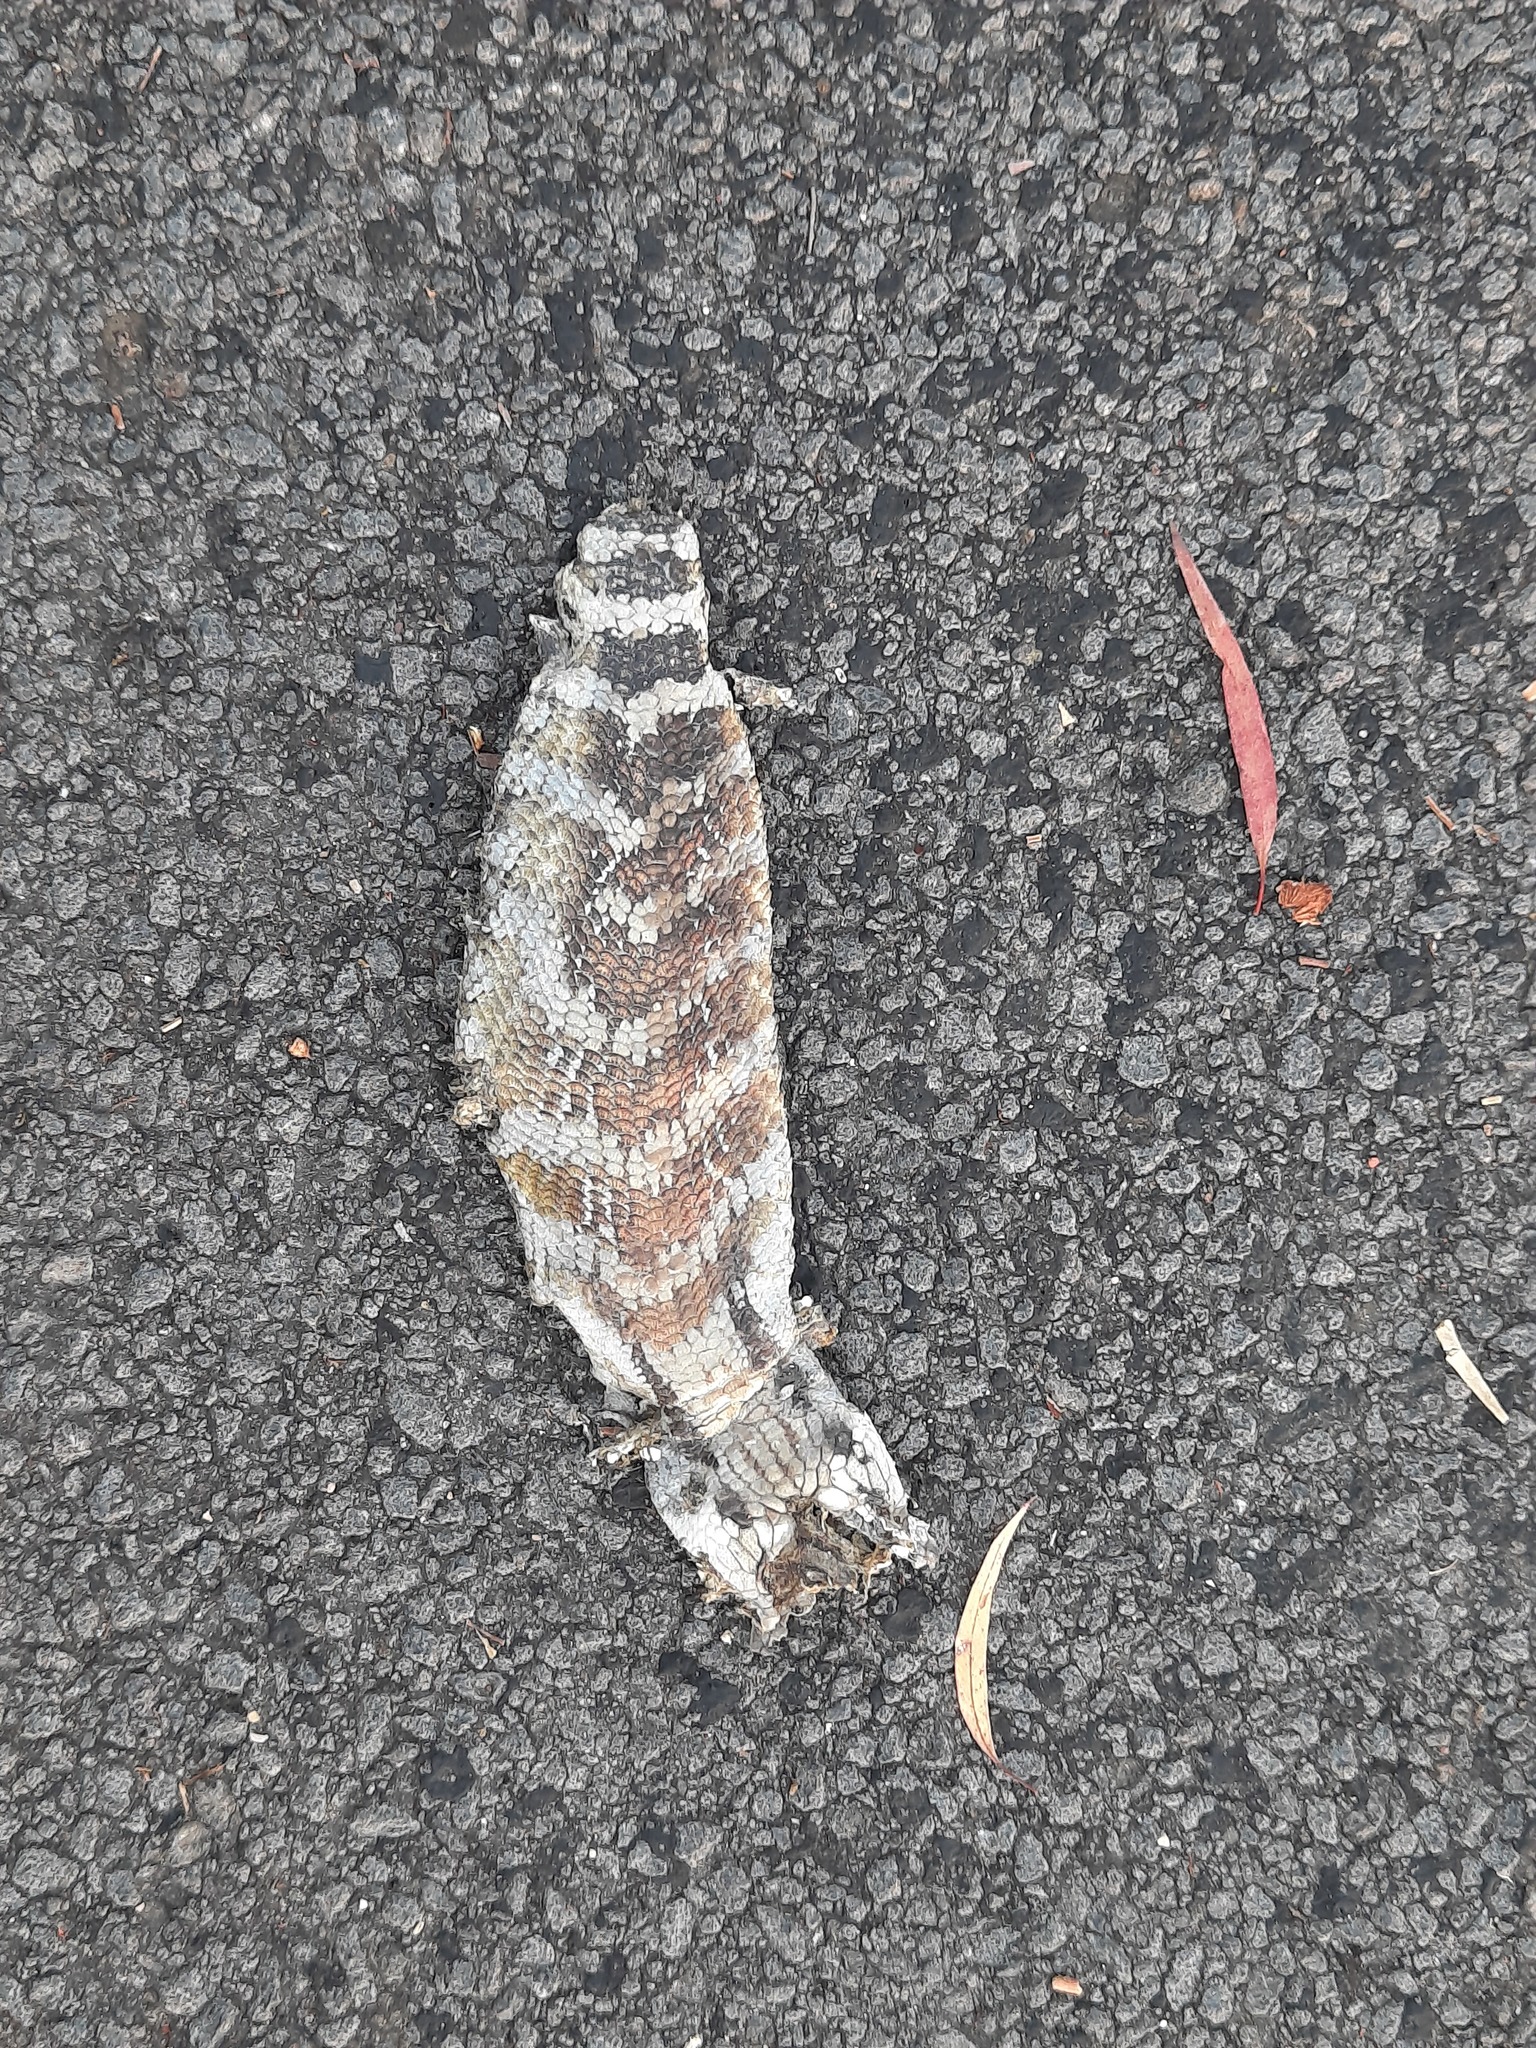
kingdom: Animalia
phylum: Chordata
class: Squamata
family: Scincidae
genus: Tiliqua
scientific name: Tiliqua scincoides
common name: Common bluetongue
